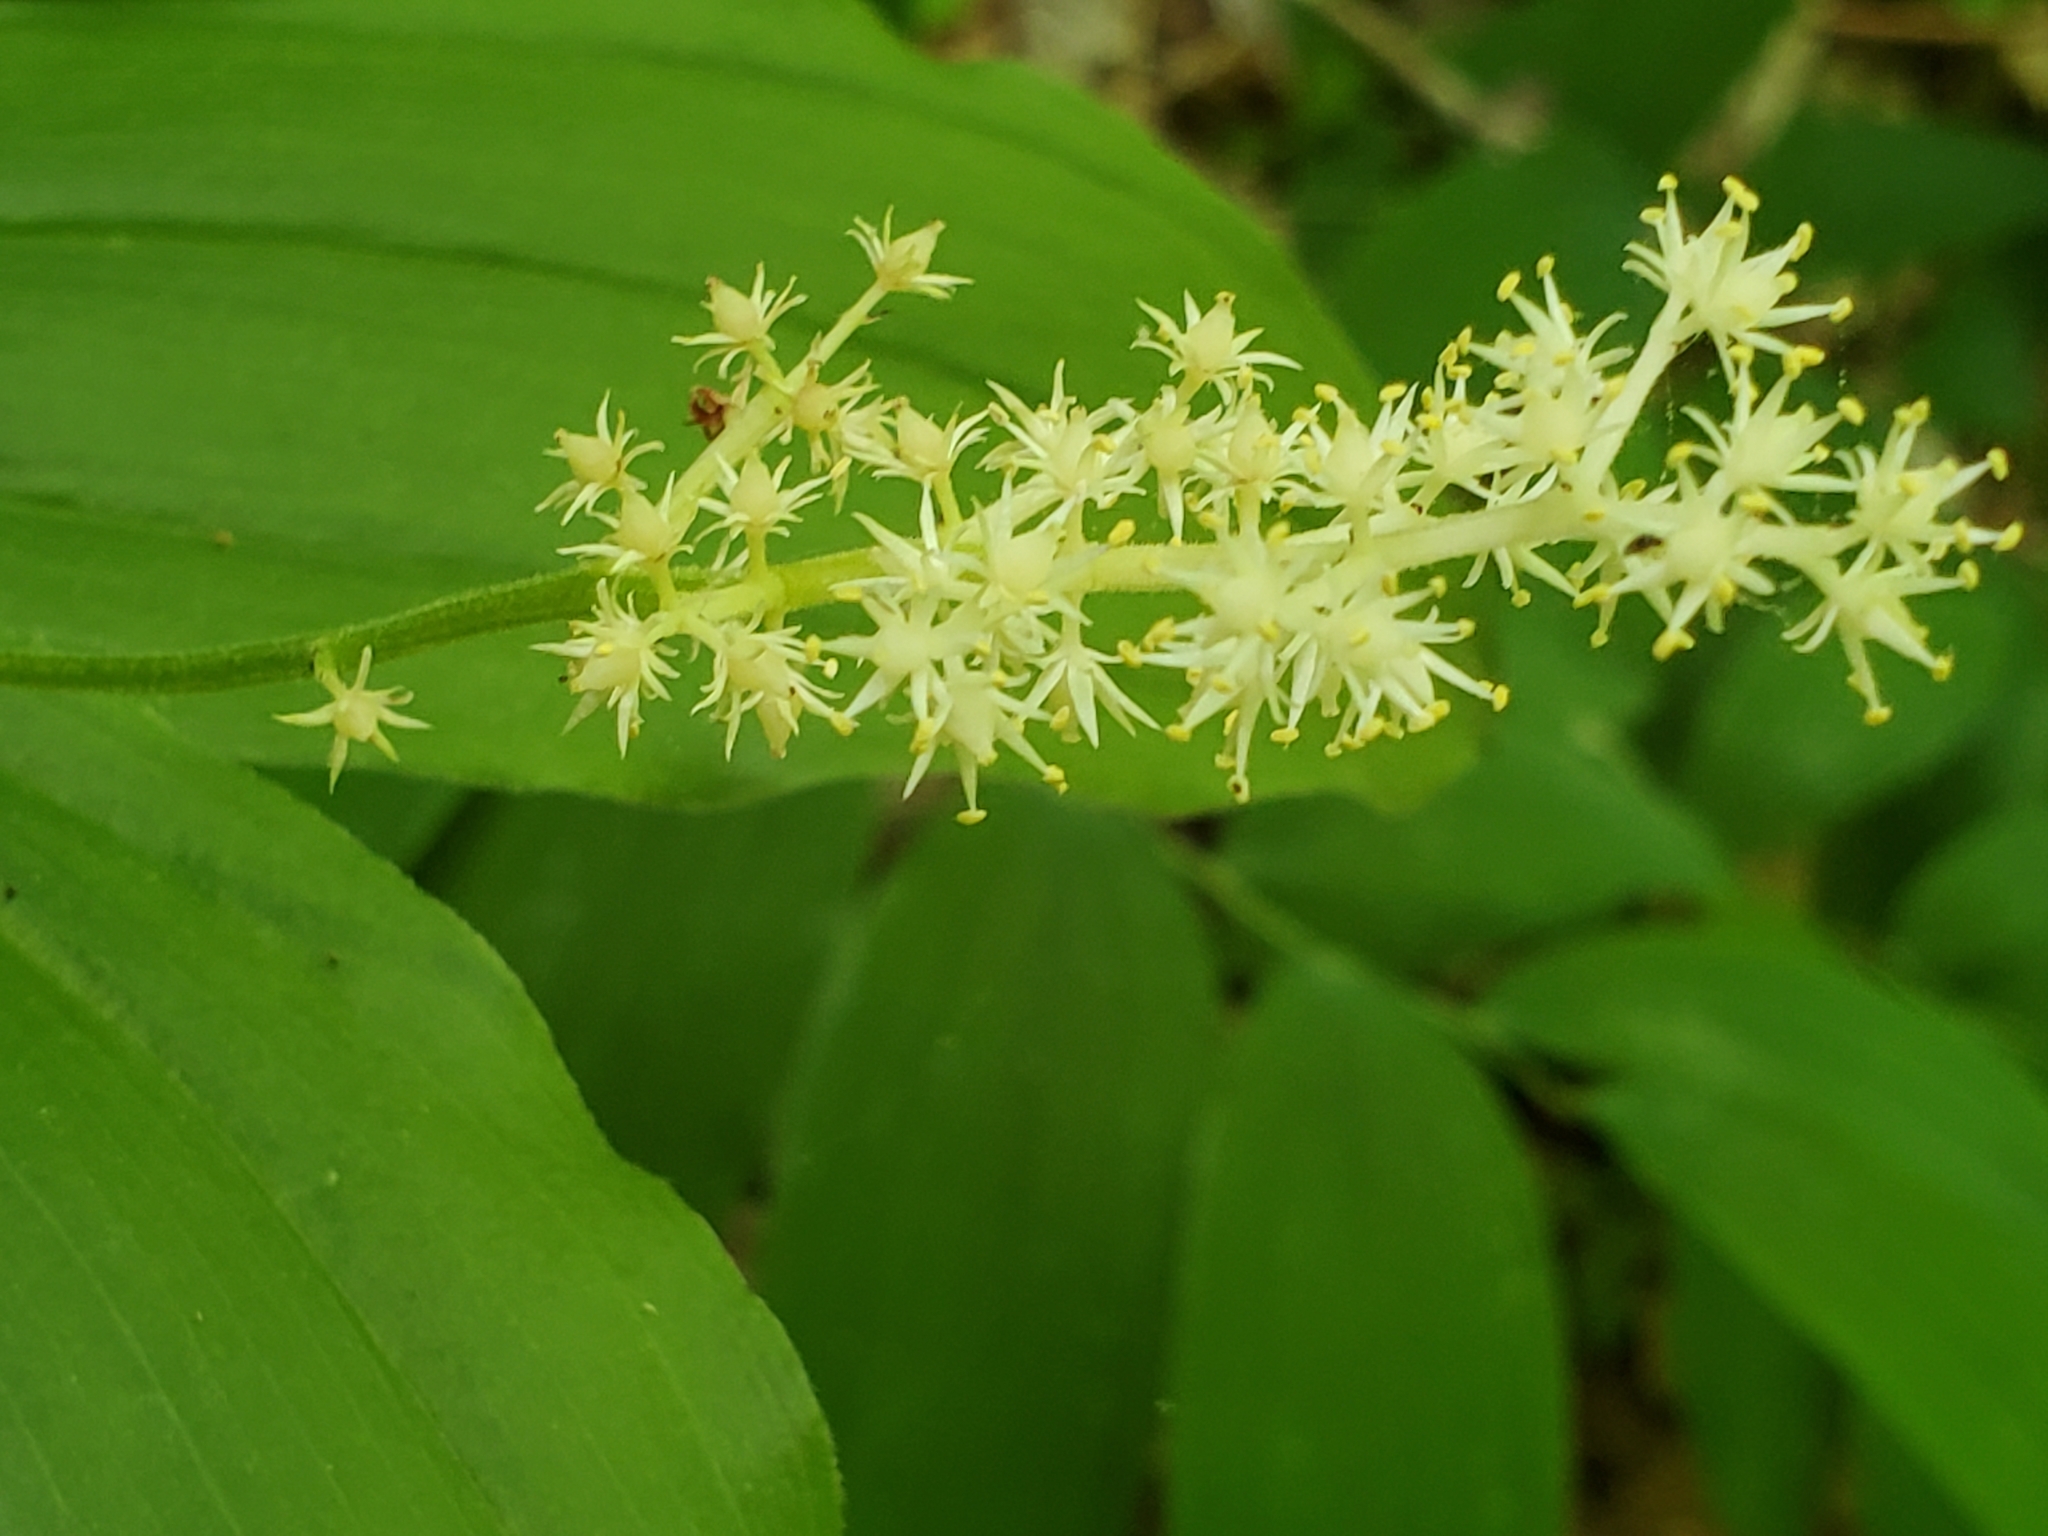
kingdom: Plantae
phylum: Tracheophyta
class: Liliopsida
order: Asparagales
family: Asparagaceae
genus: Maianthemum
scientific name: Maianthemum racemosum
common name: False spikenard
